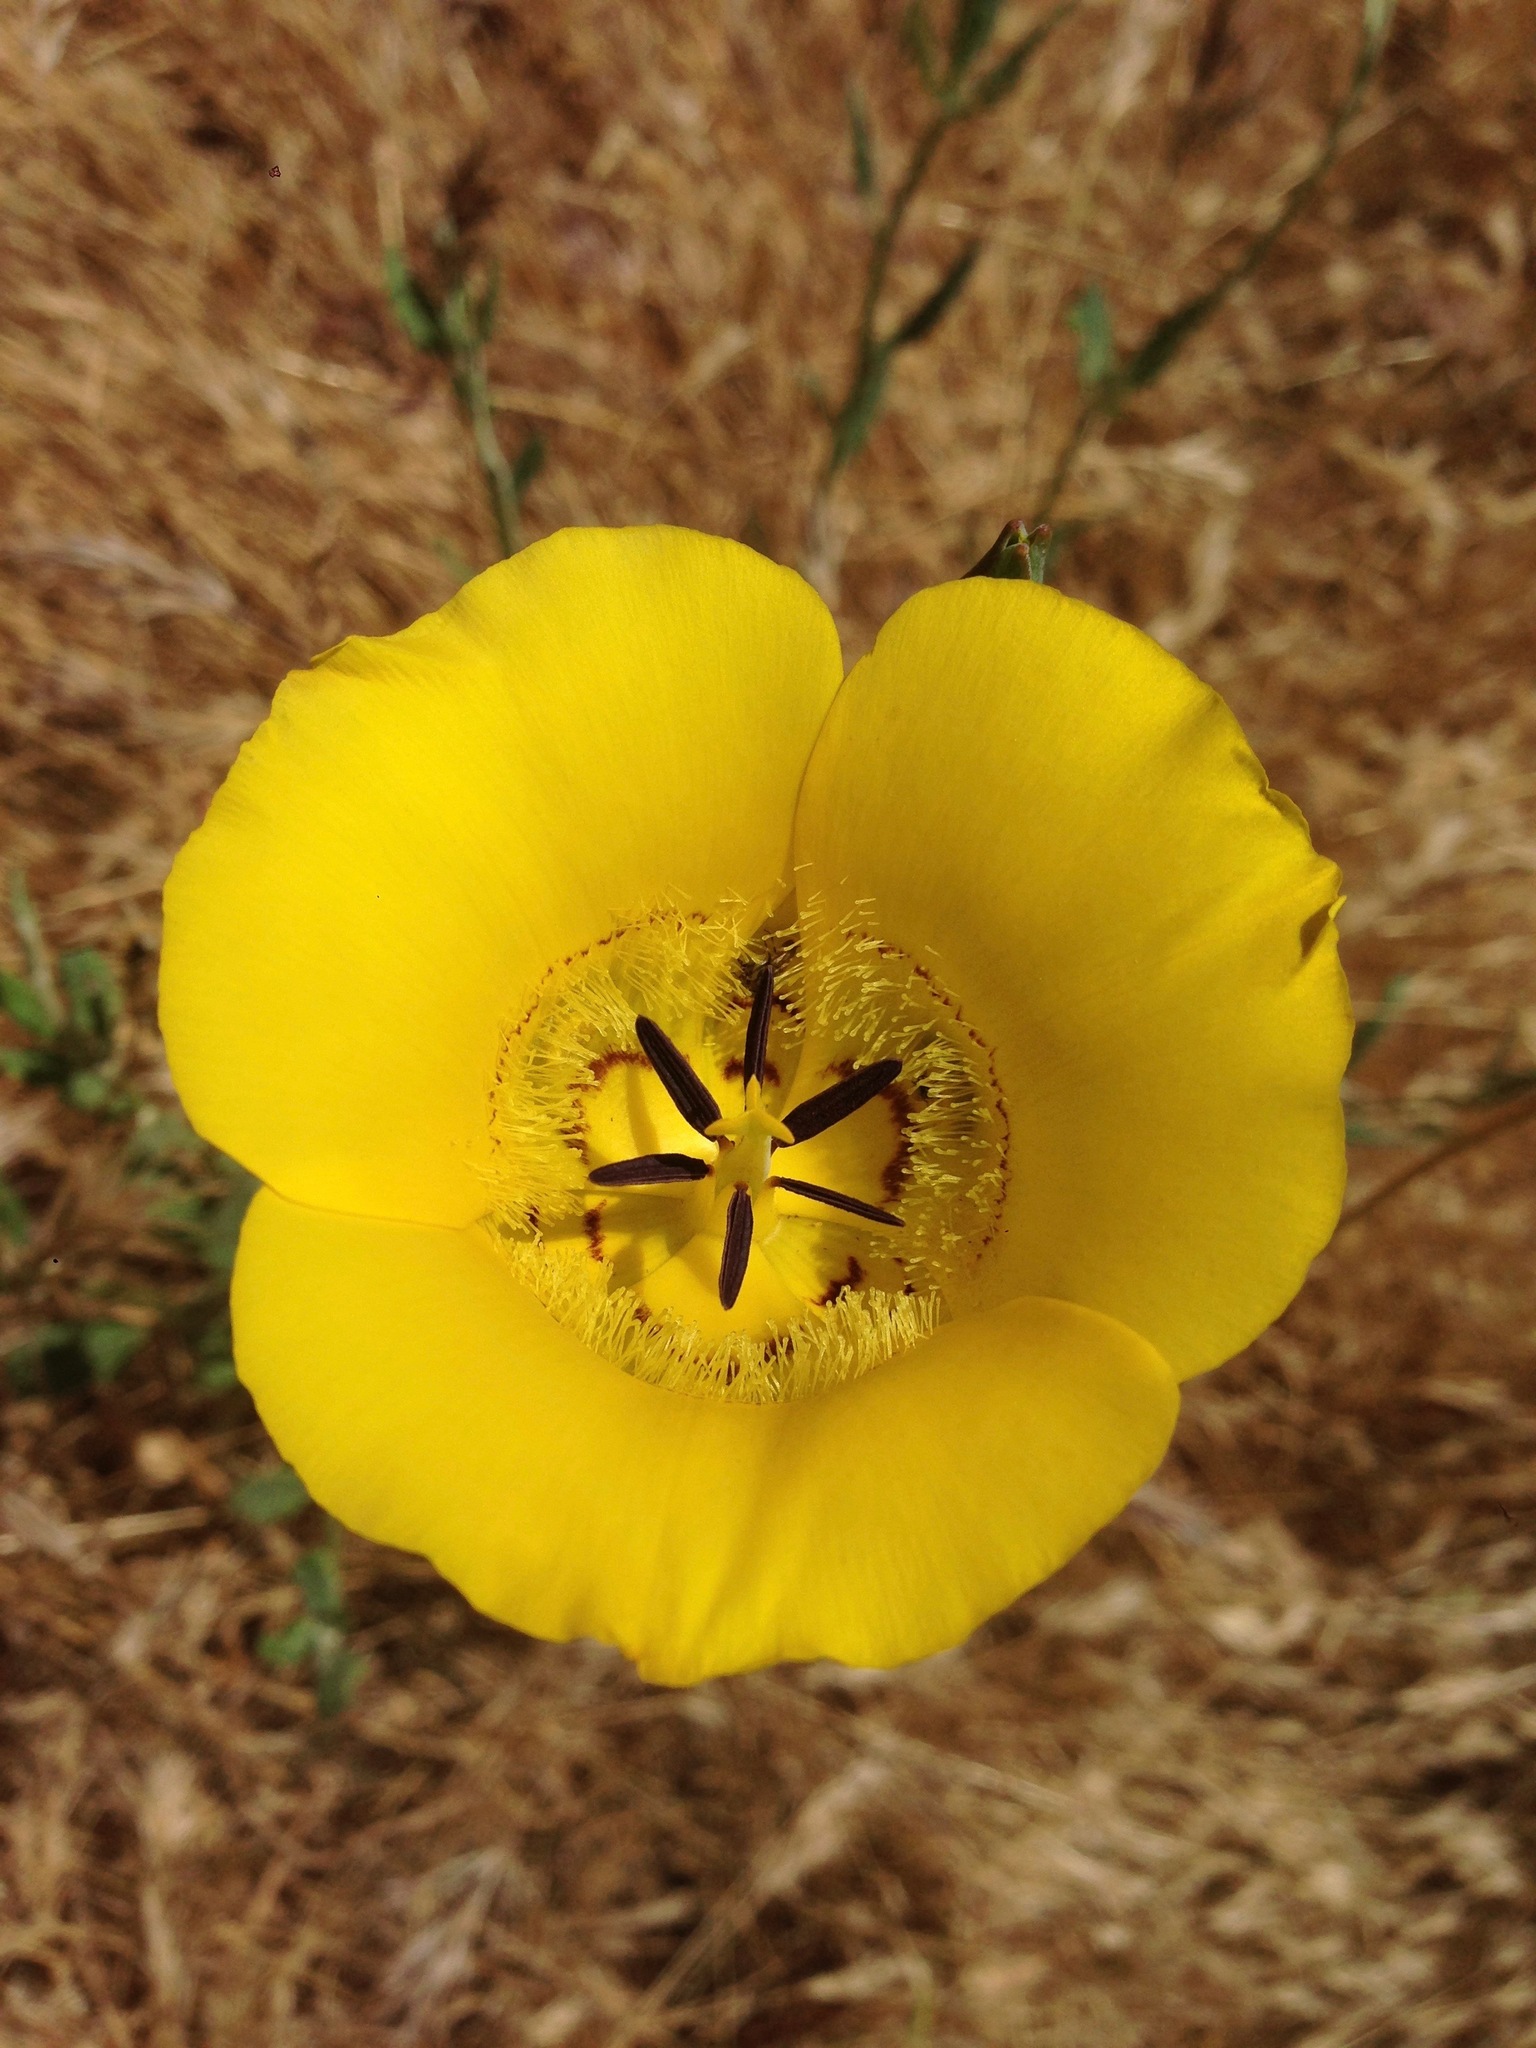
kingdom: Plantae
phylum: Tracheophyta
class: Liliopsida
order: Liliales
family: Liliaceae
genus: Calochortus
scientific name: Calochortus clavatus
